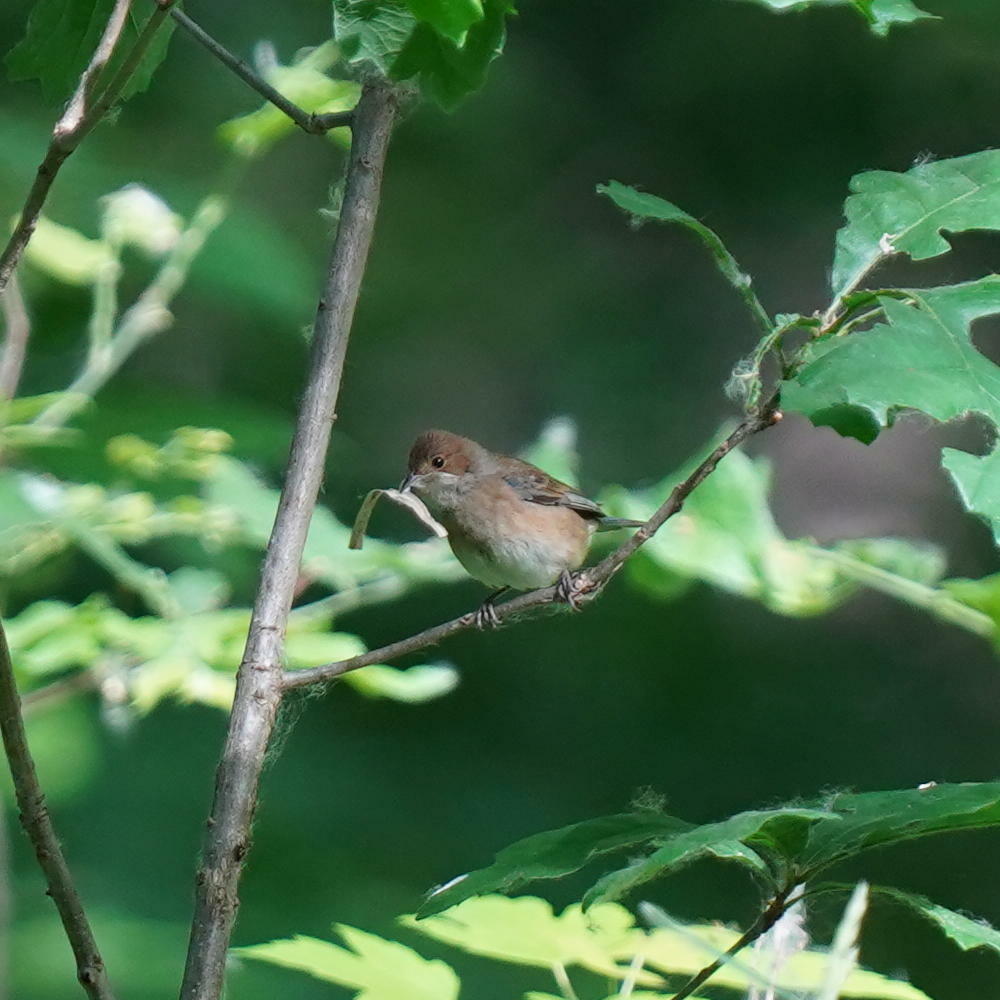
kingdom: Animalia
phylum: Chordata
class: Aves
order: Passeriformes
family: Cardinalidae
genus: Passerina
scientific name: Passerina cyanea
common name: Indigo bunting
